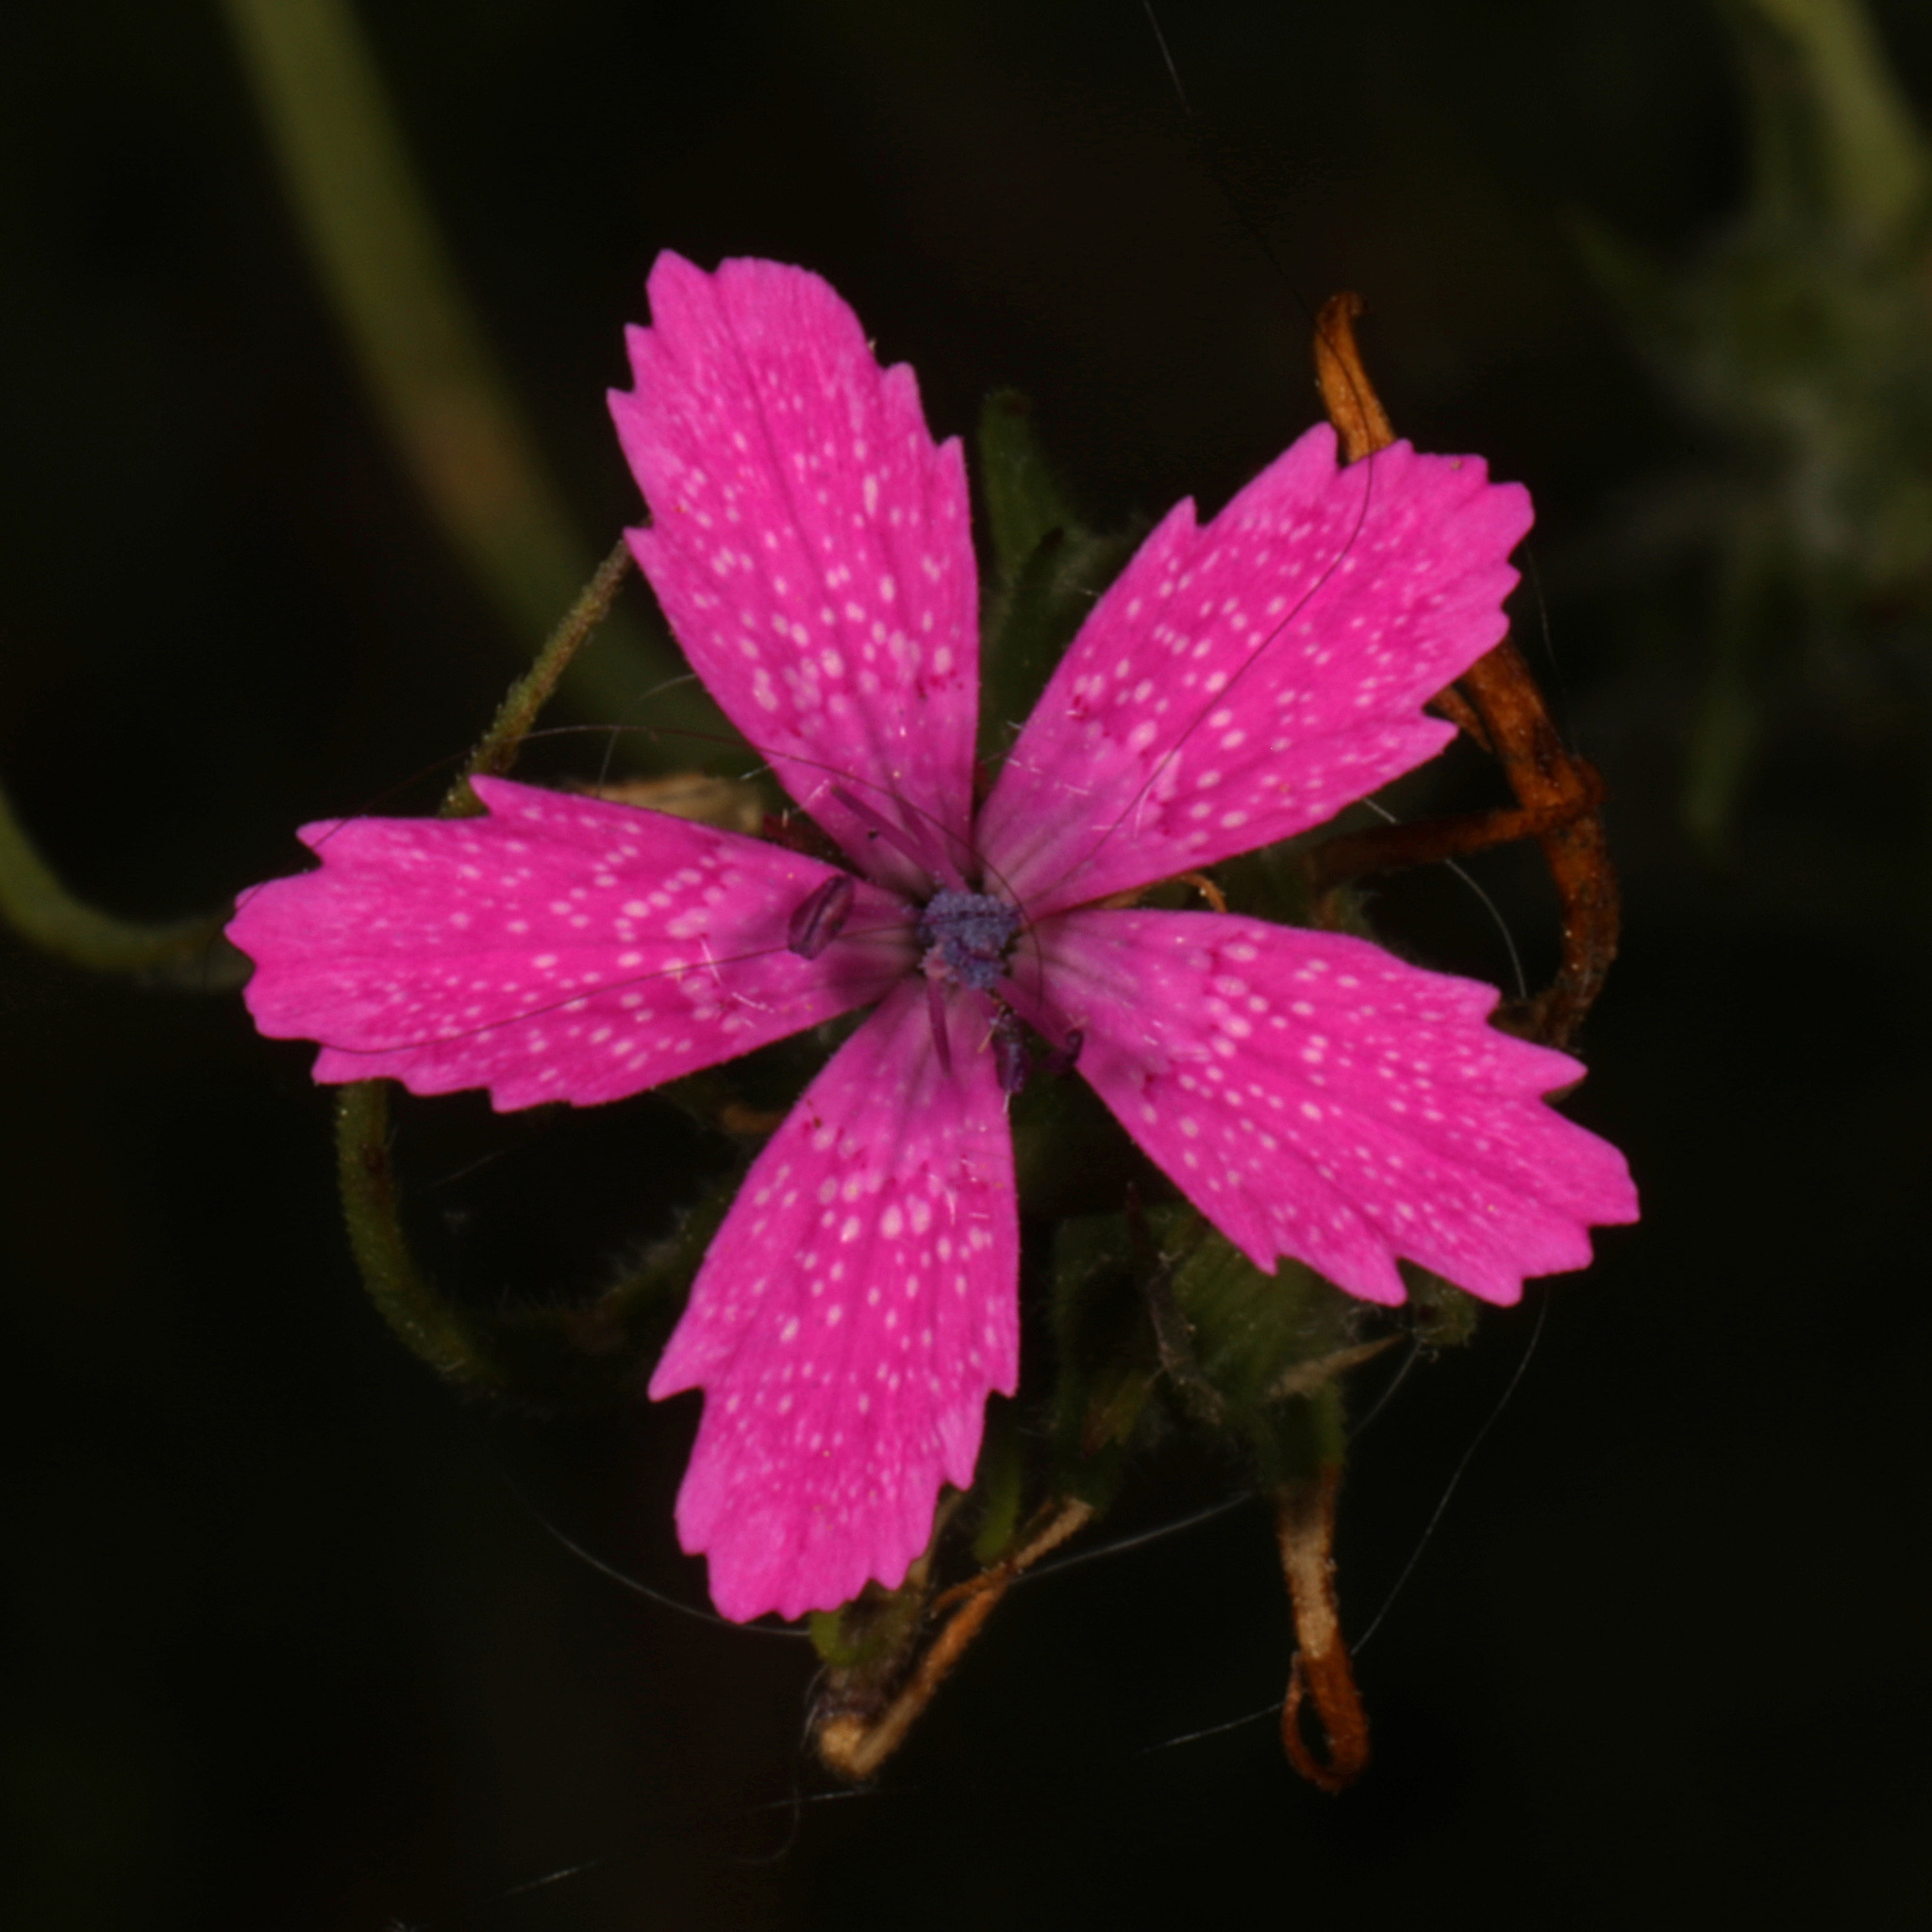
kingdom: Plantae
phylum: Tracheophyta
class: Magnoliopsida
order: Caryophyllales
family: Caryophyllaceae
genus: Dianthus
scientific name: Dianthus armeria
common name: Deptford pink
